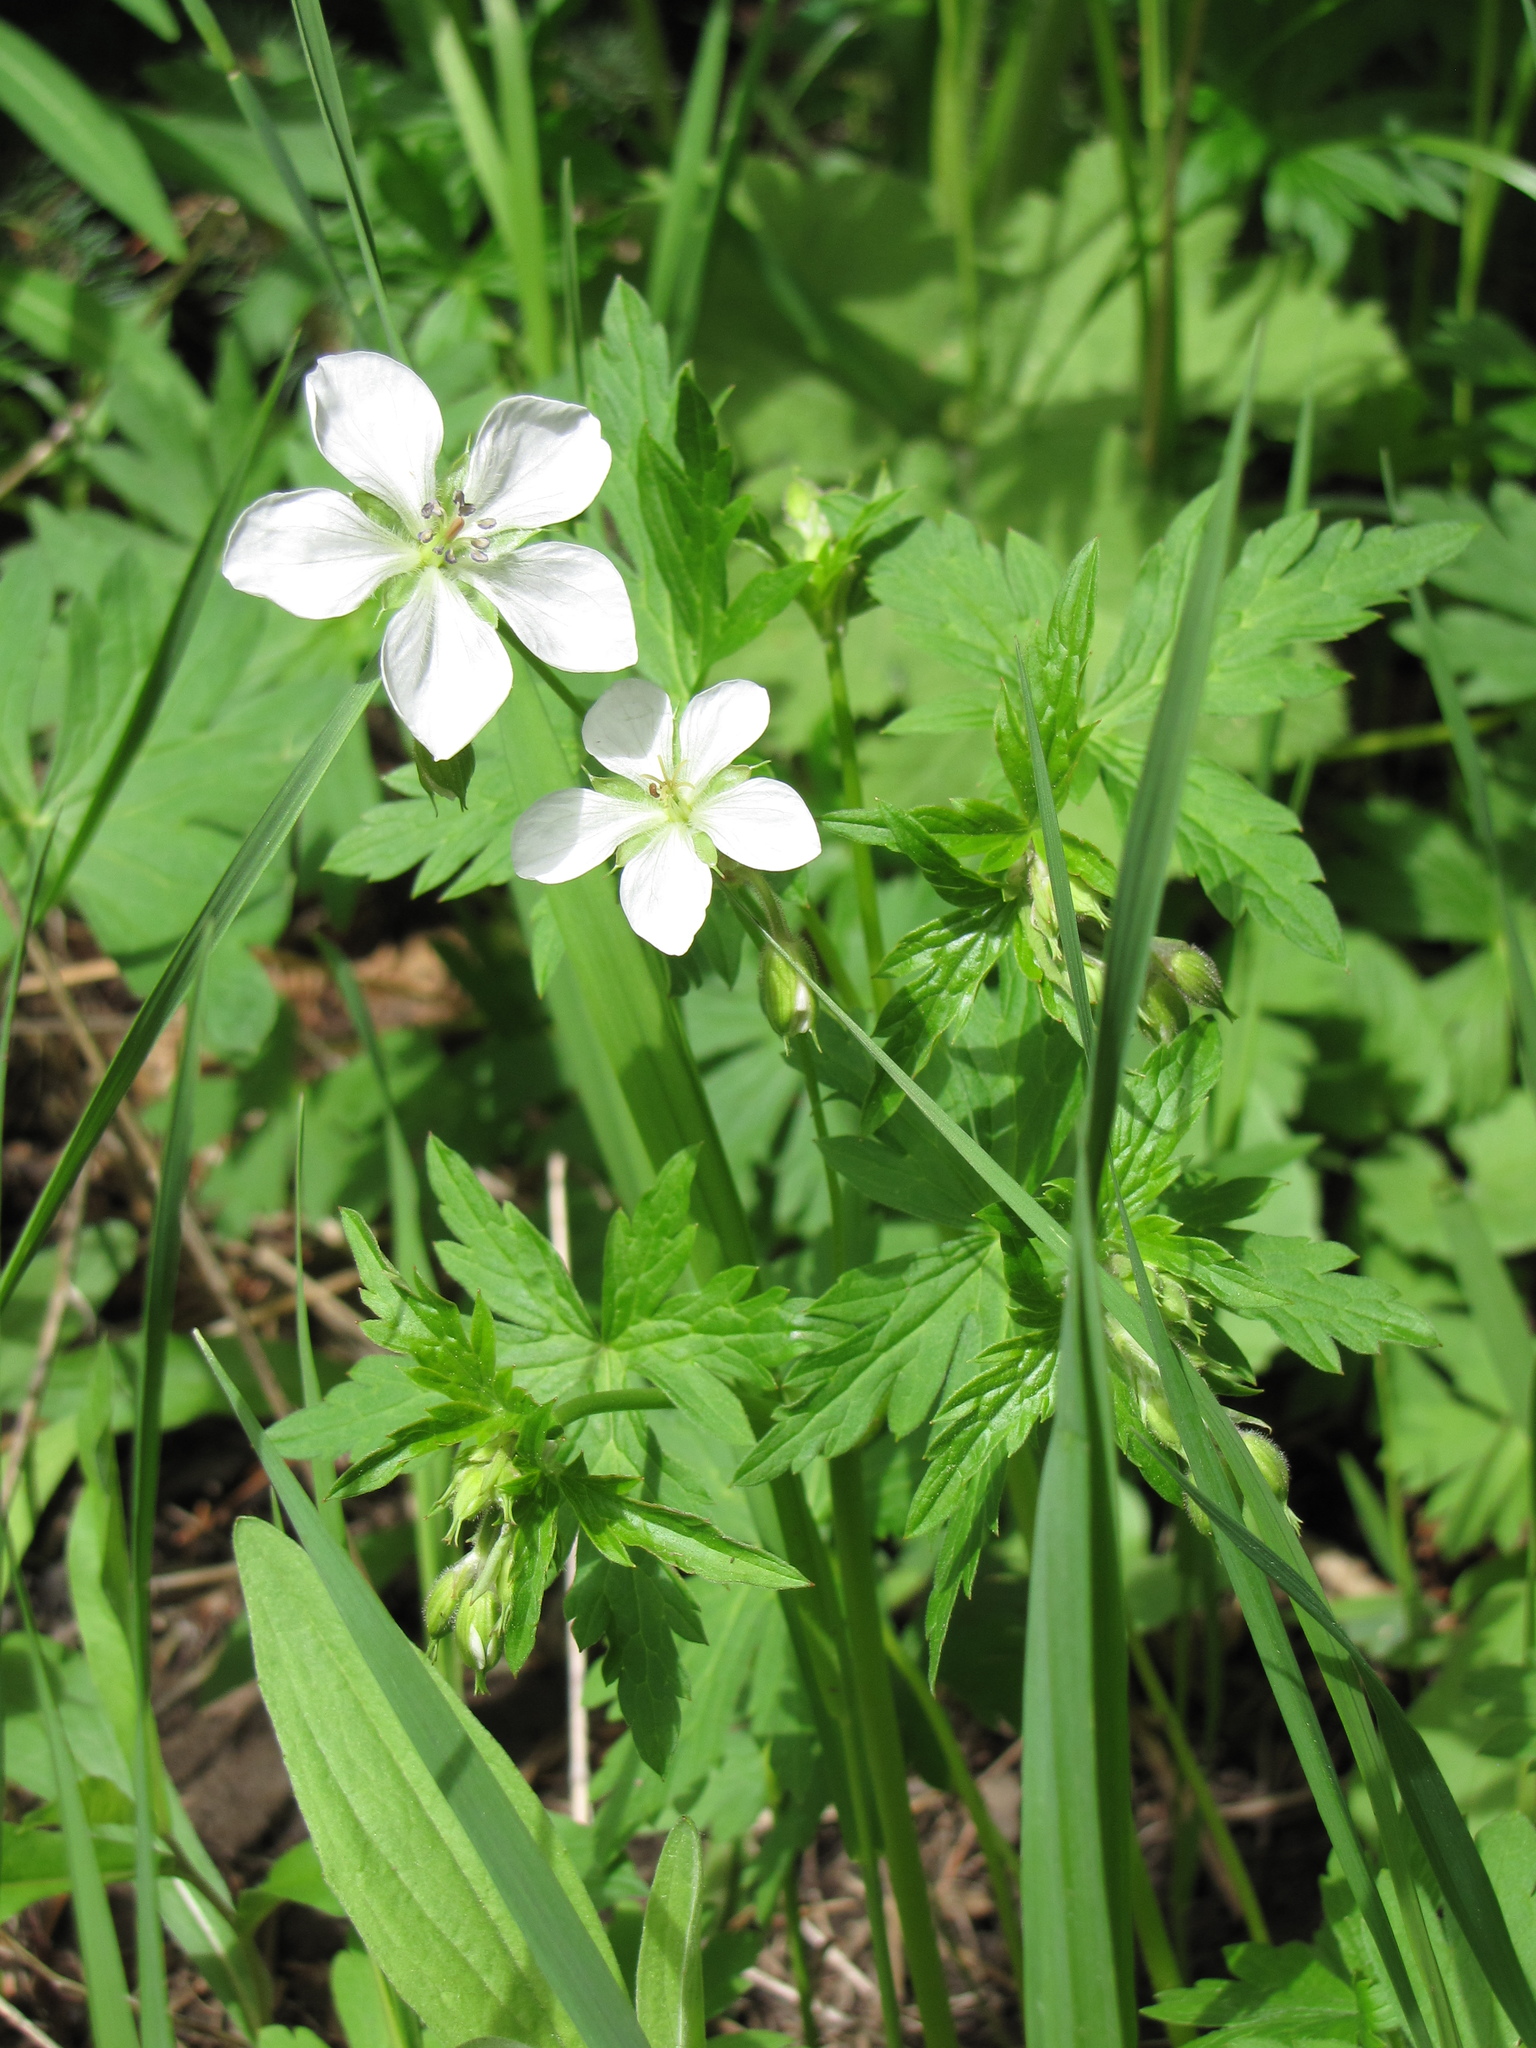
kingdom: Plantae
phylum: Tracheophyta
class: Magnoliopsida
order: Geraniales
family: Geraniaceae
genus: Geranium
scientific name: Geranium richardsonii
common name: Richardson's crane's-bill
